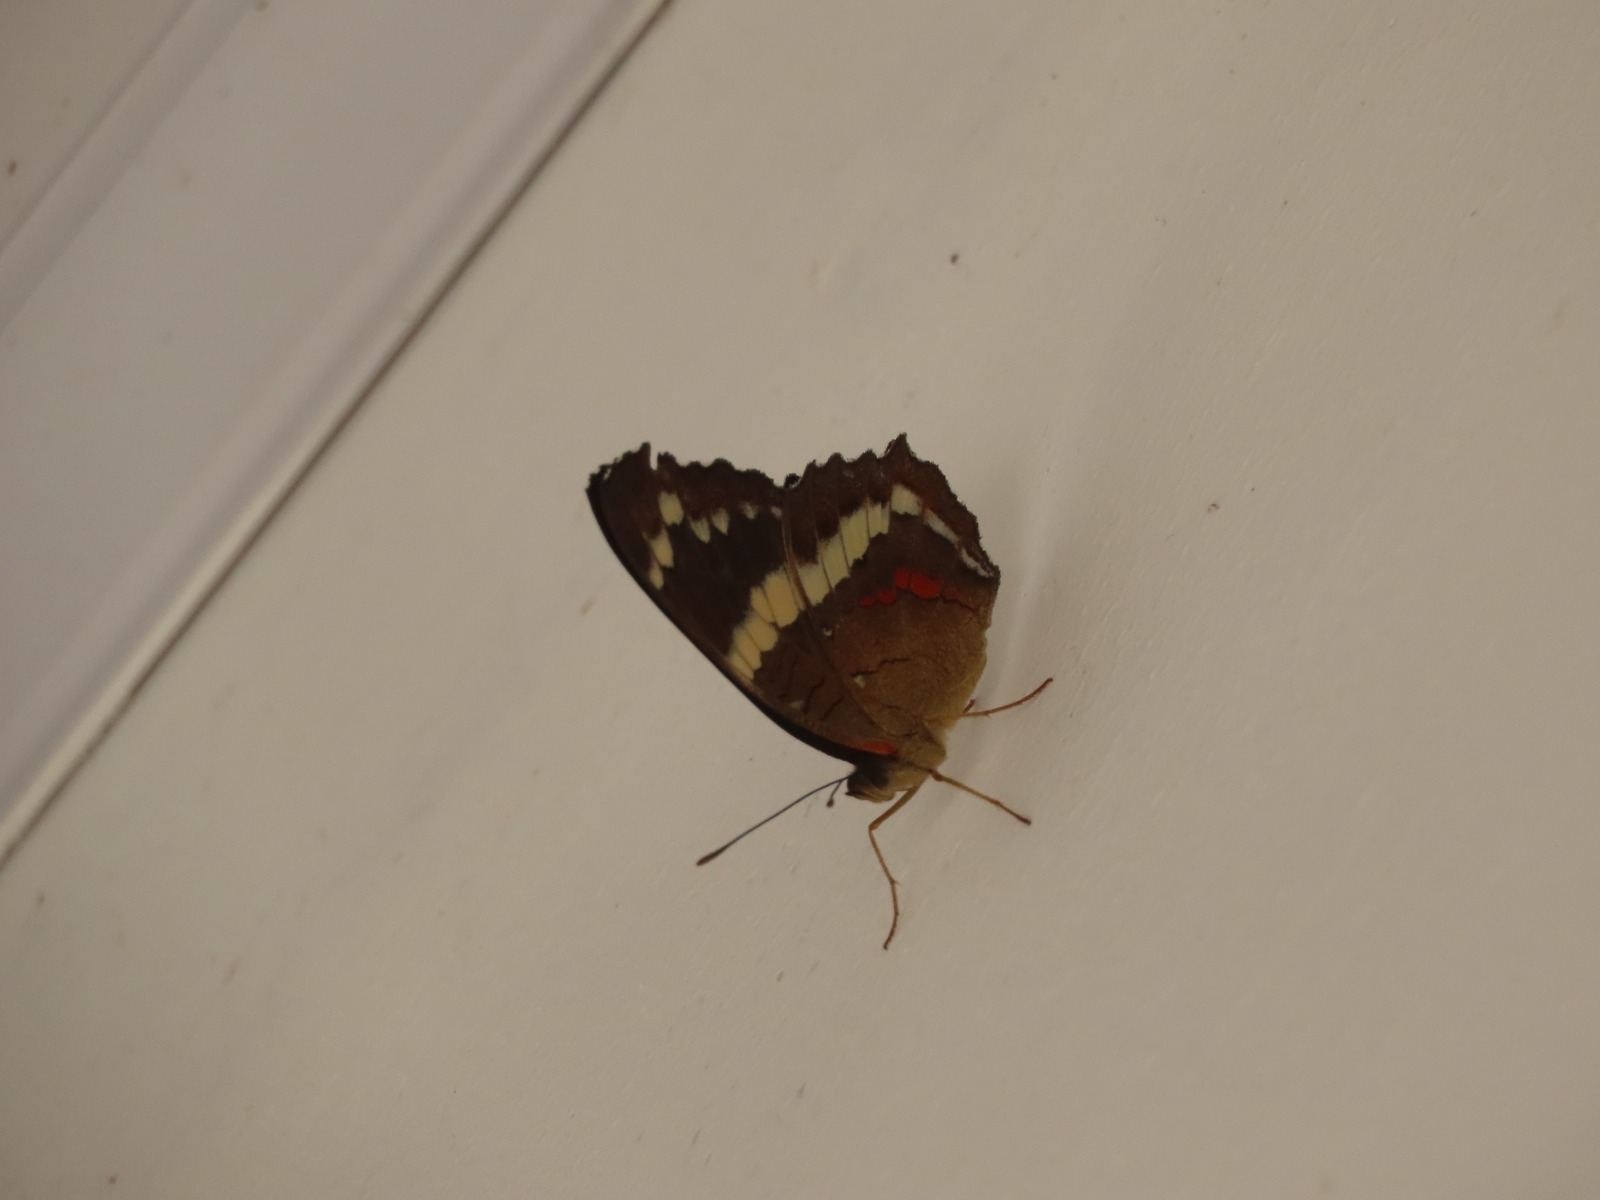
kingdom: Animalia
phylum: Arthropoda
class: Insecta
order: Lepidoptera
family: Nymphalidae
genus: Anartia
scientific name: Anartia fatima
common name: Banded peacock
